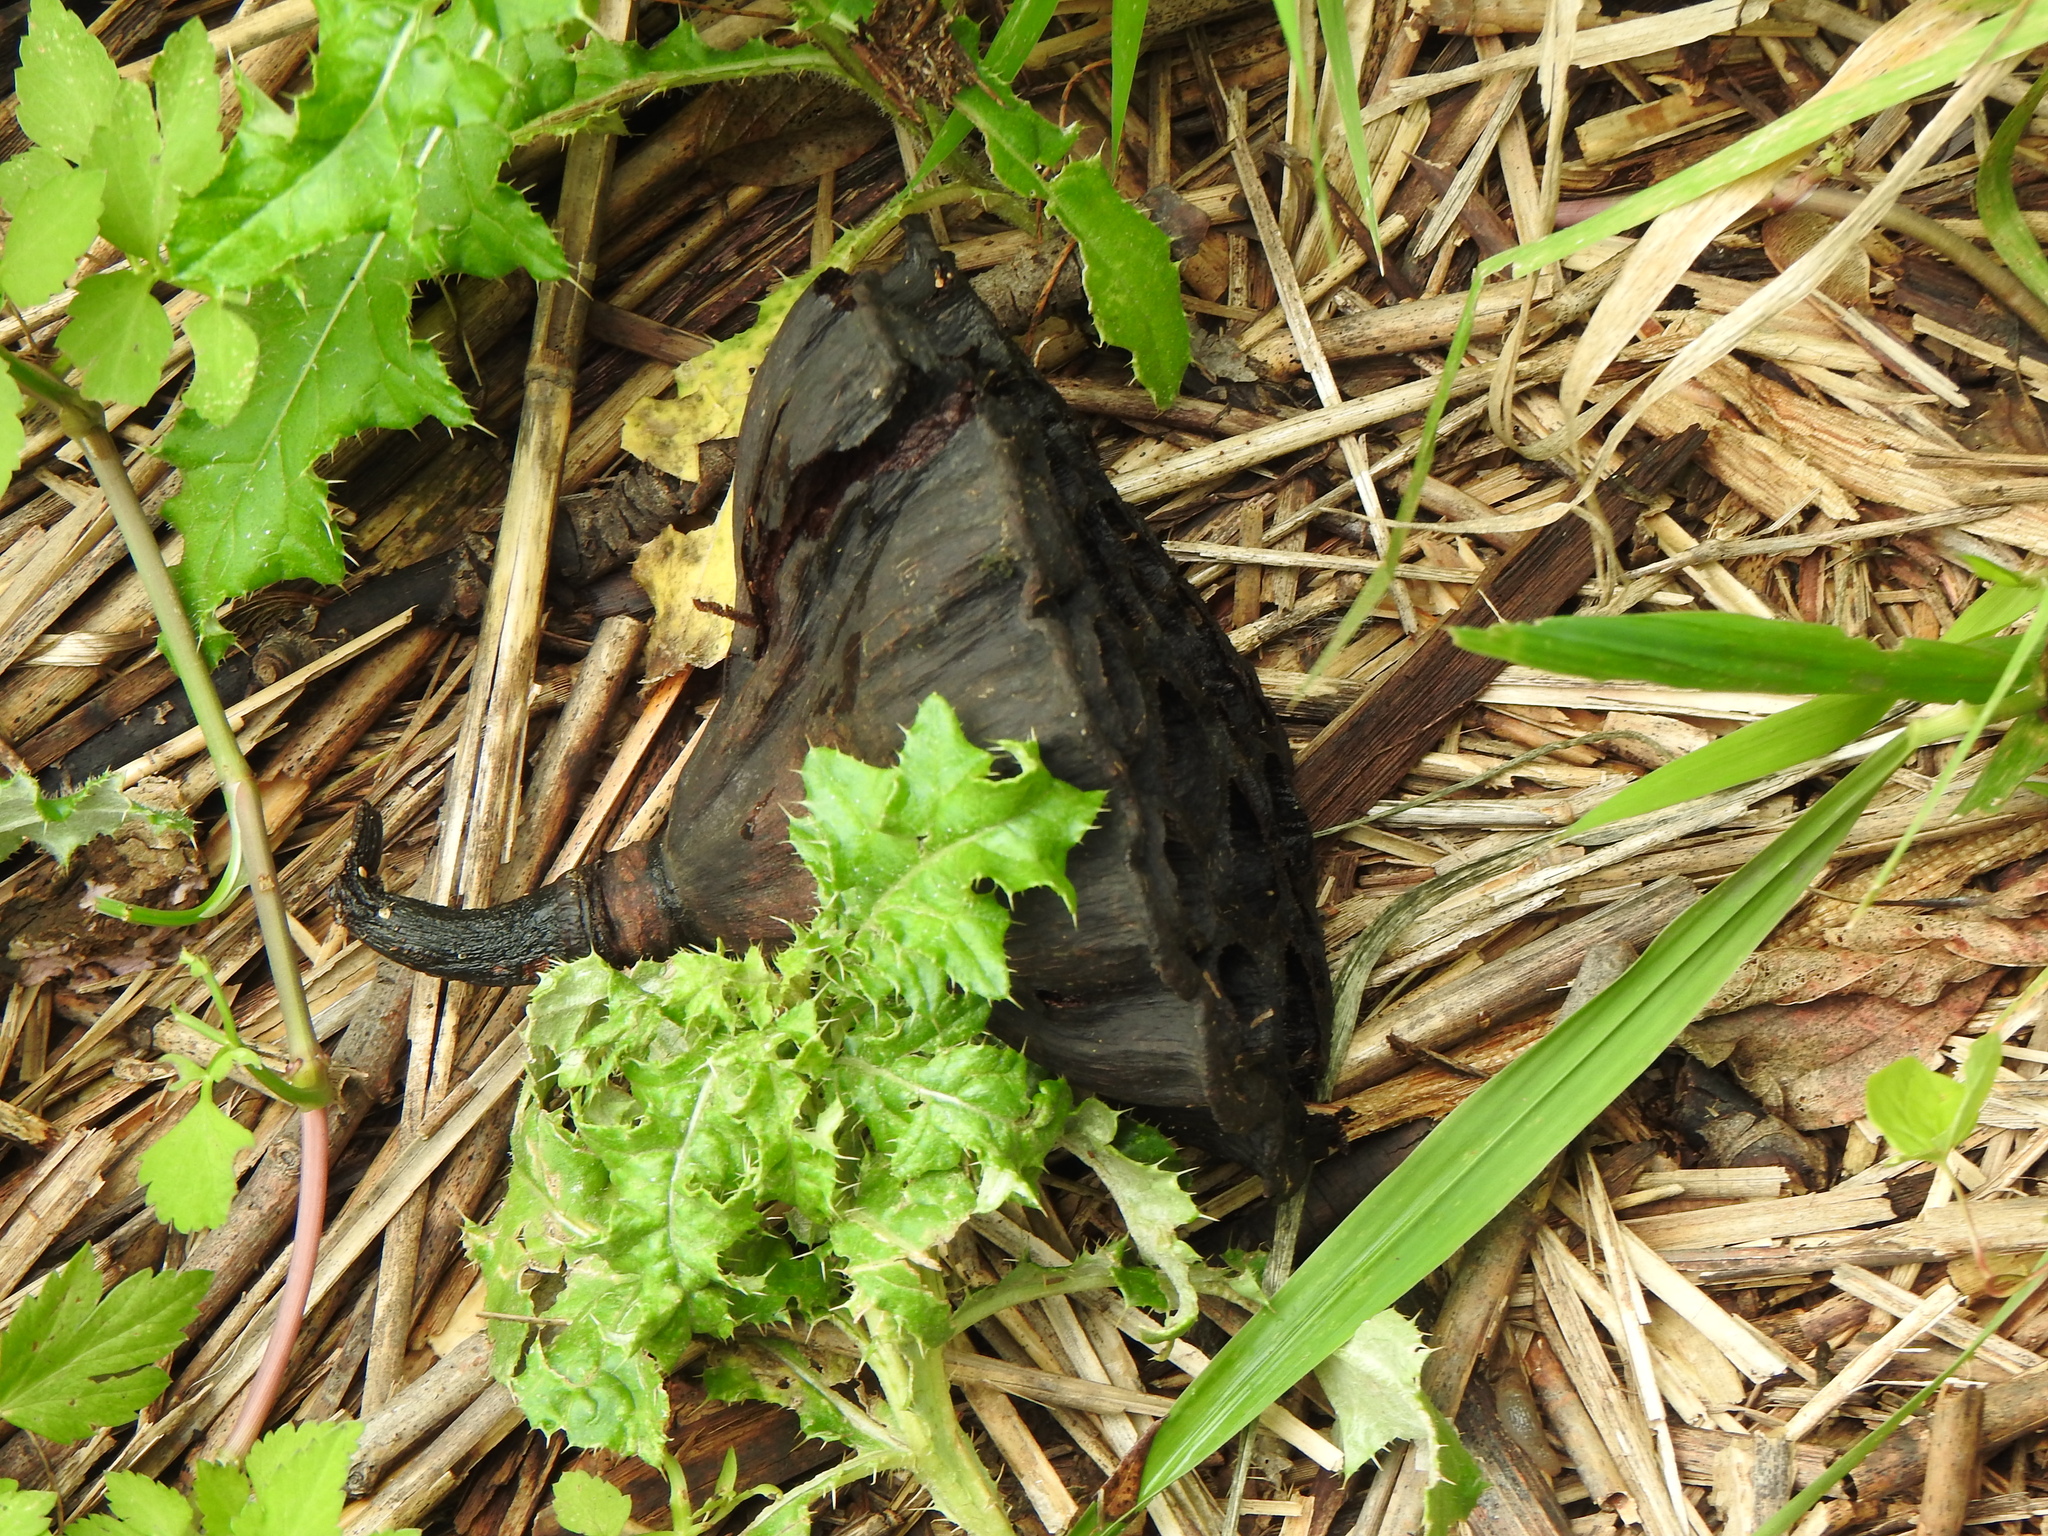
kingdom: Plantae
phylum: Tracheophyta
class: Magnoliopsida
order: Proteales
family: Nelumbonaceae
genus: Nelumbo
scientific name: Nelumbo lutea
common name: American lotus
